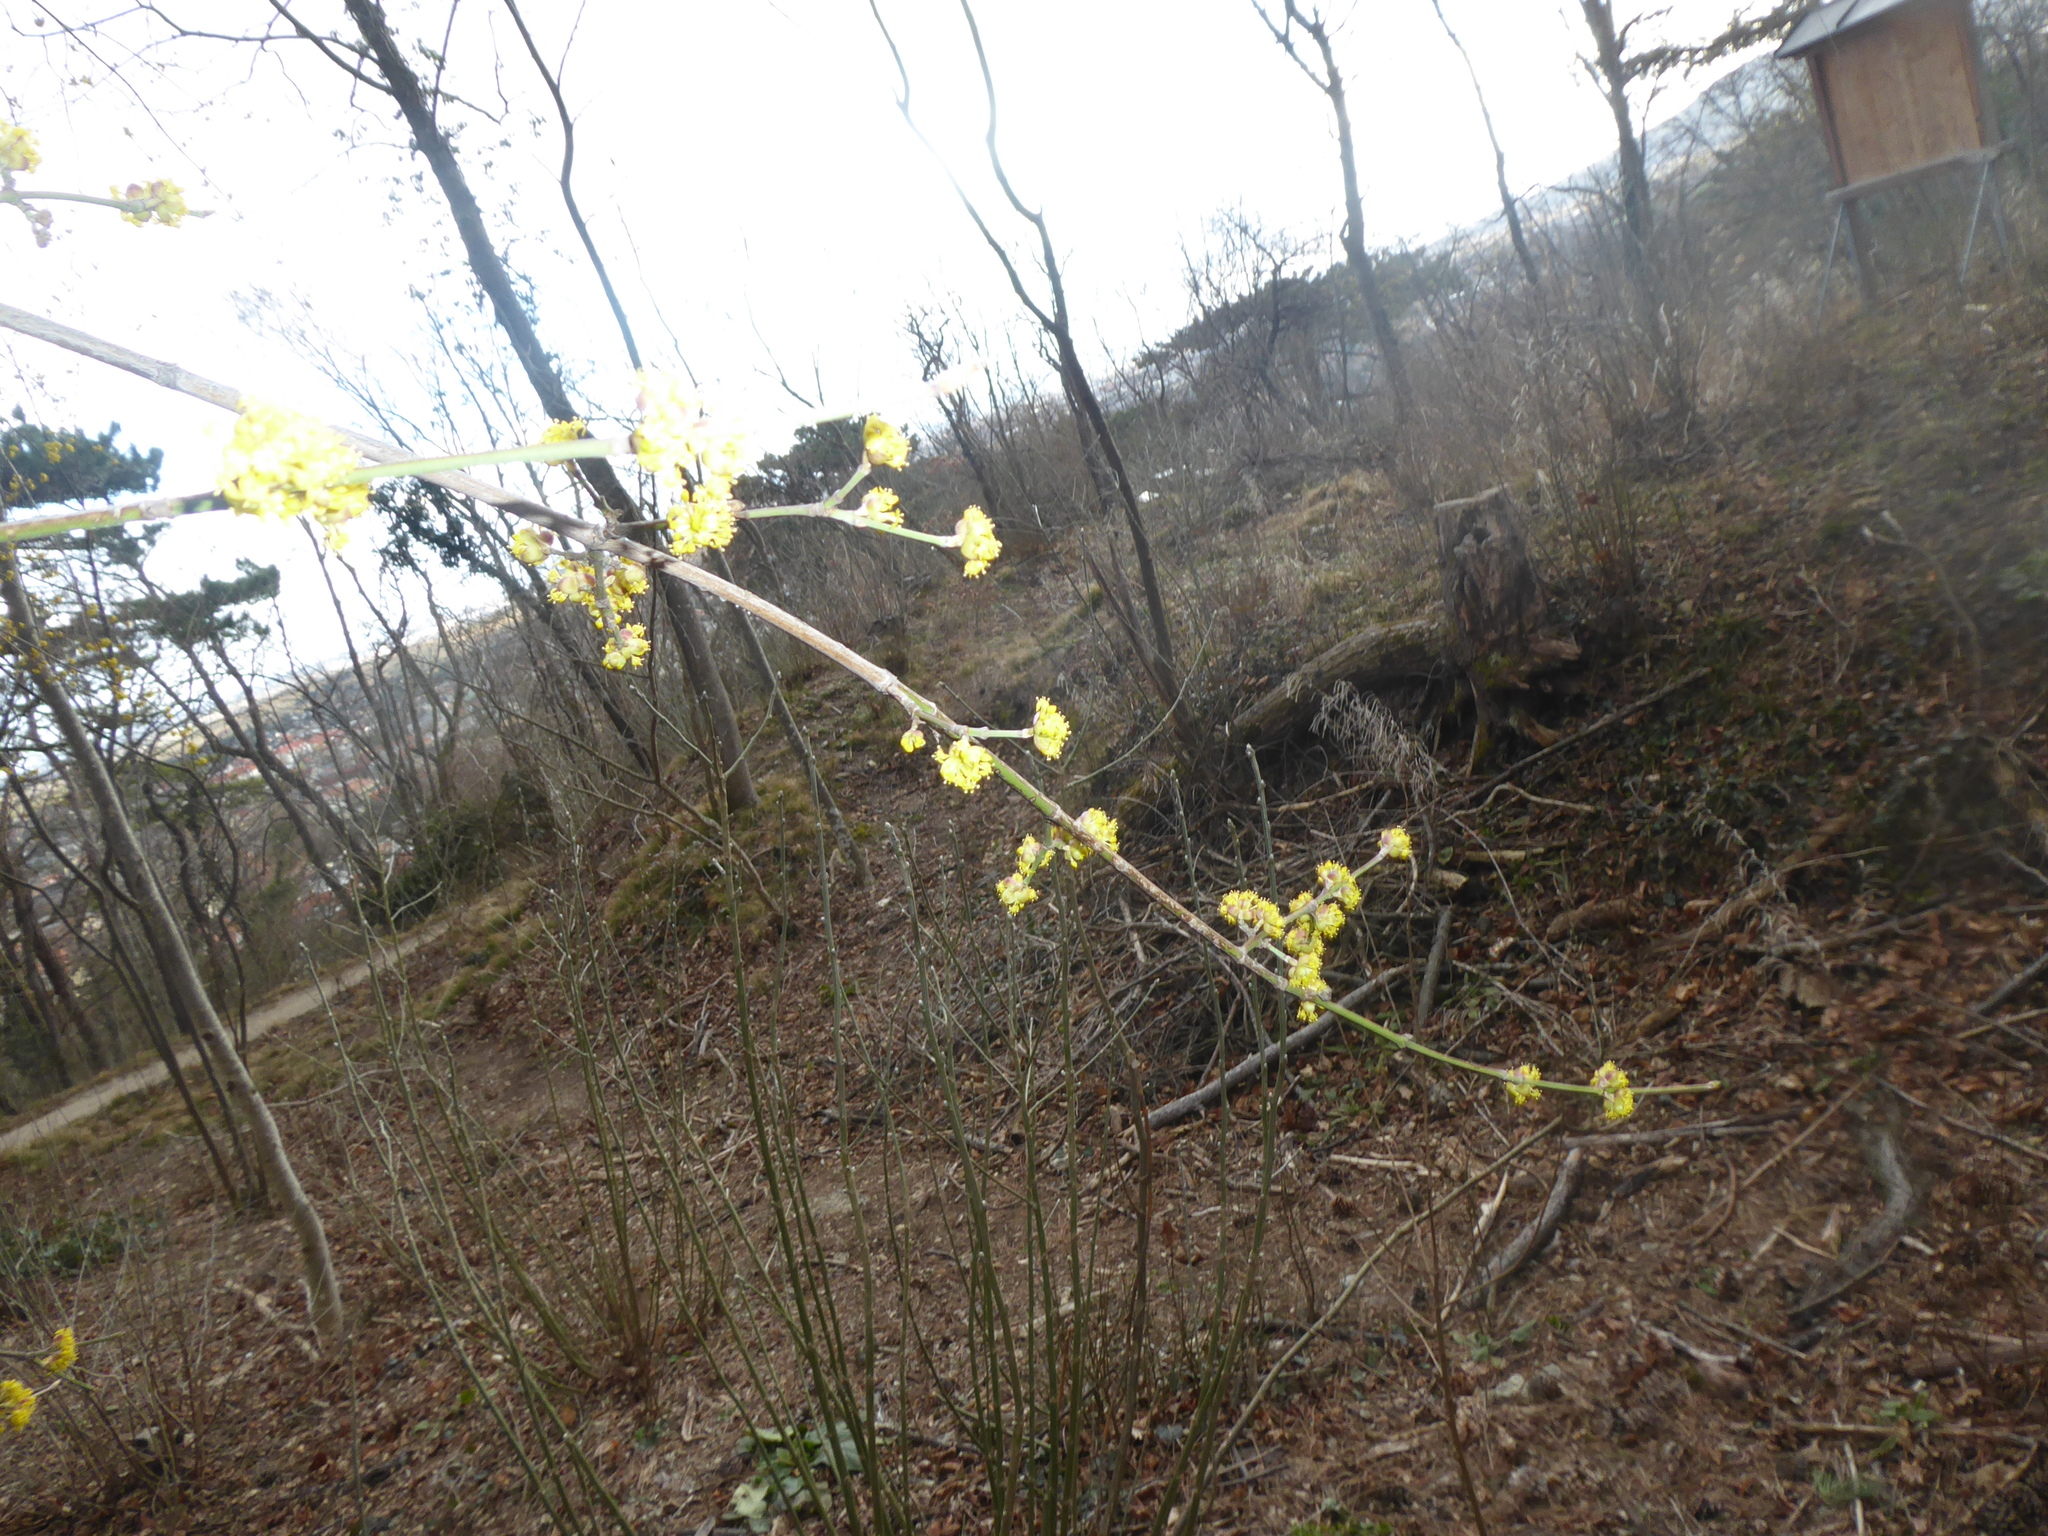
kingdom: Plantae
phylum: Tracheophyta
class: Magnoliopsida
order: Cornales
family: Cornaceae
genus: Cornus
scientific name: Cornus mas
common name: Cornelian-cherry
